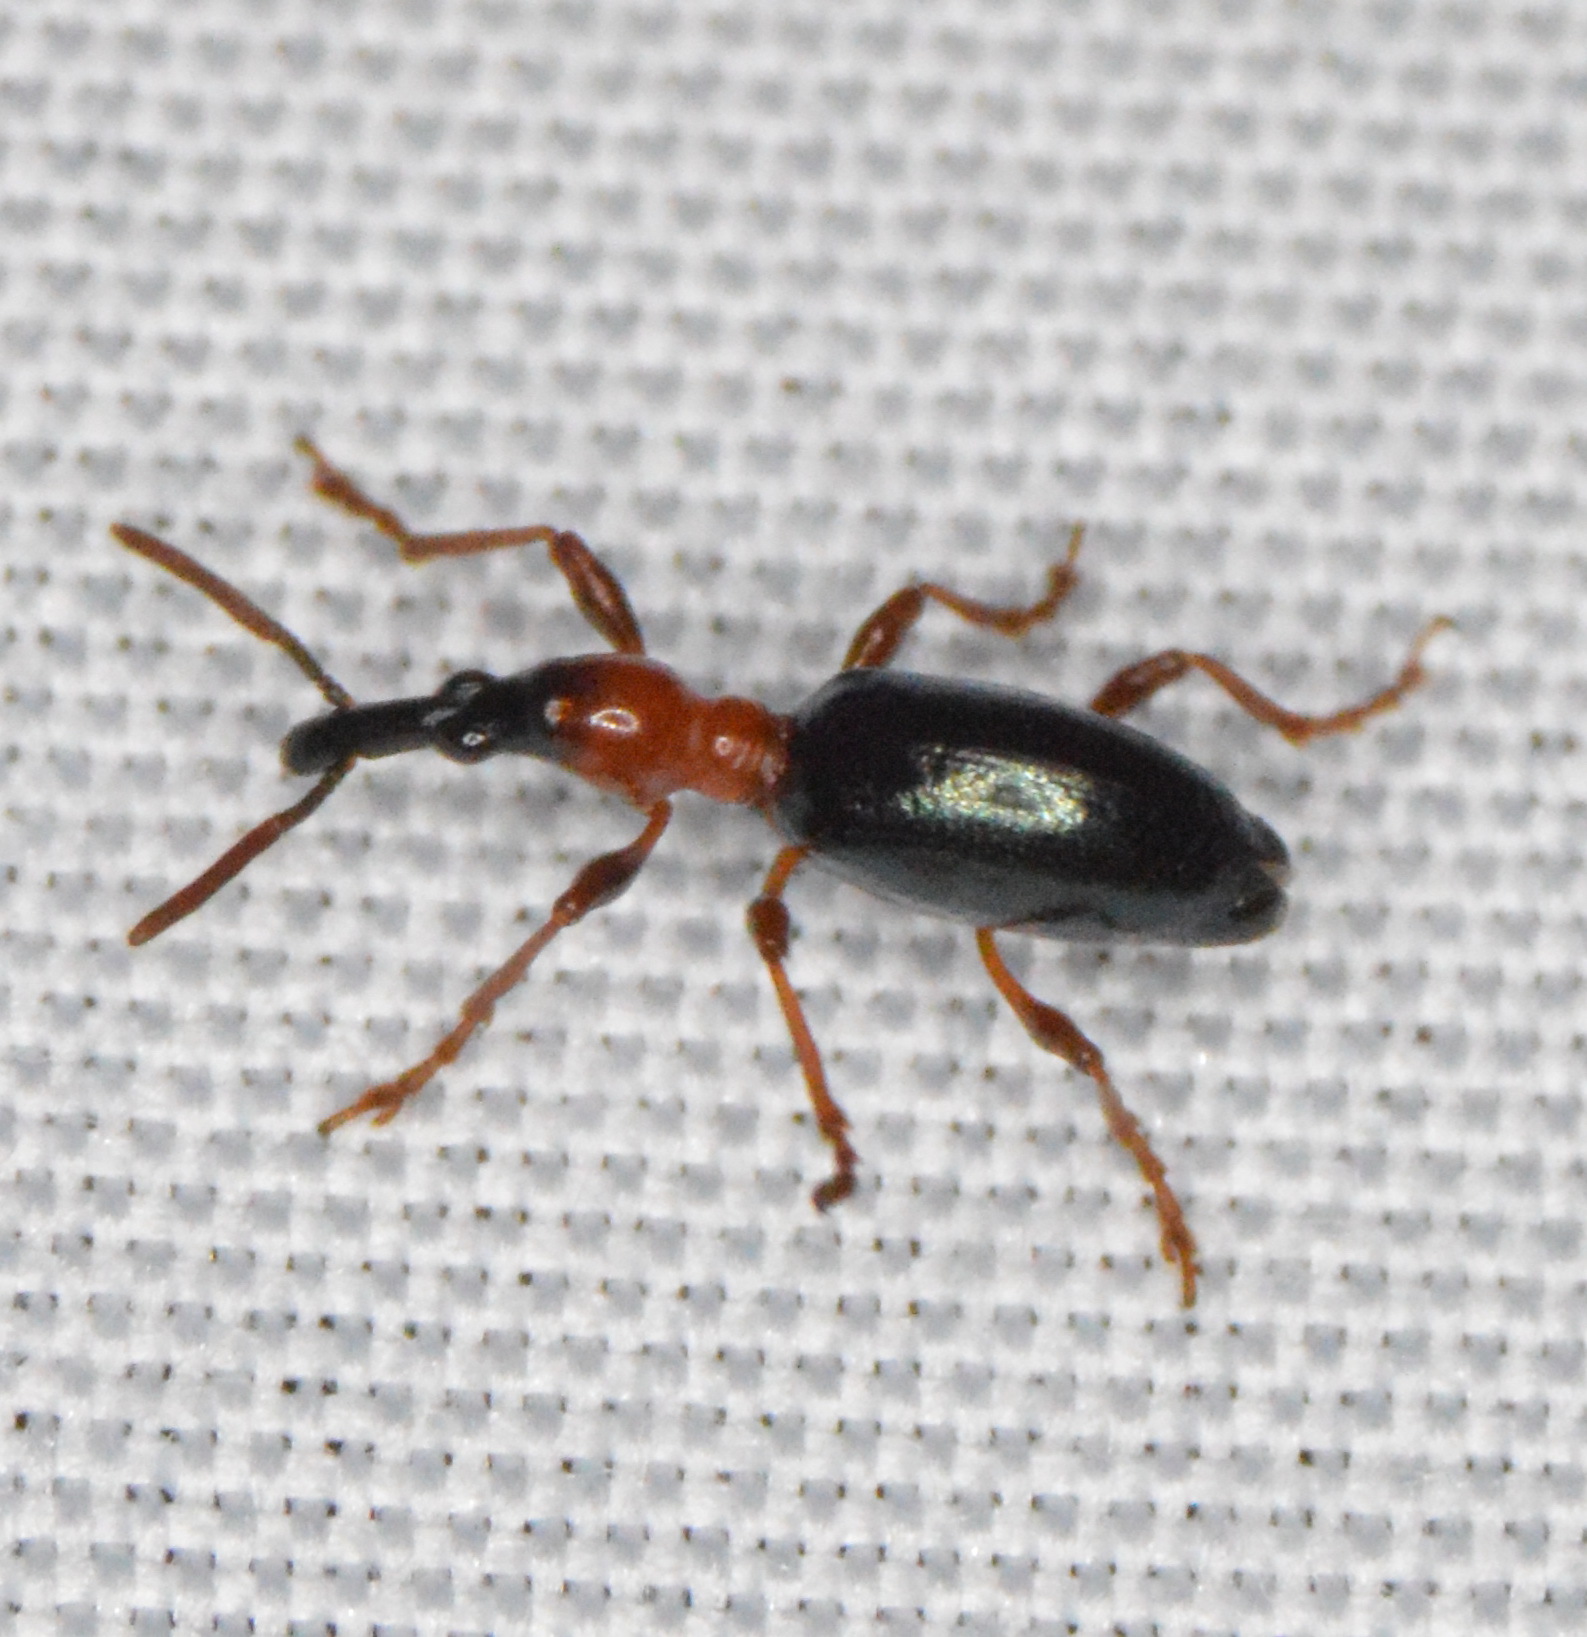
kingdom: Animalia
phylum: Arthropoda
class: Insecta
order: Coleoptera
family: Brentidae
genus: Cylas
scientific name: Cylas formicarius
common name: Sweetpotato weevil
